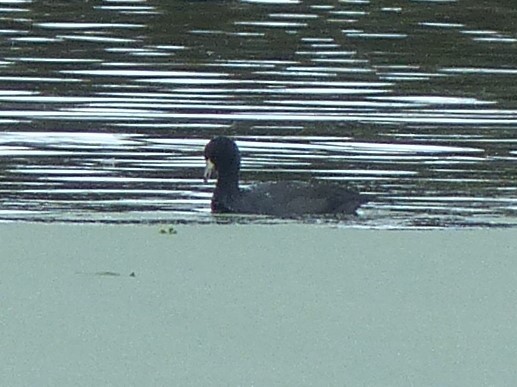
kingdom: Animalia
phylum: Chordata
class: Aves
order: Gruiformes
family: Rallidae
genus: Fulica
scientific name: Fulica americana
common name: American coot
